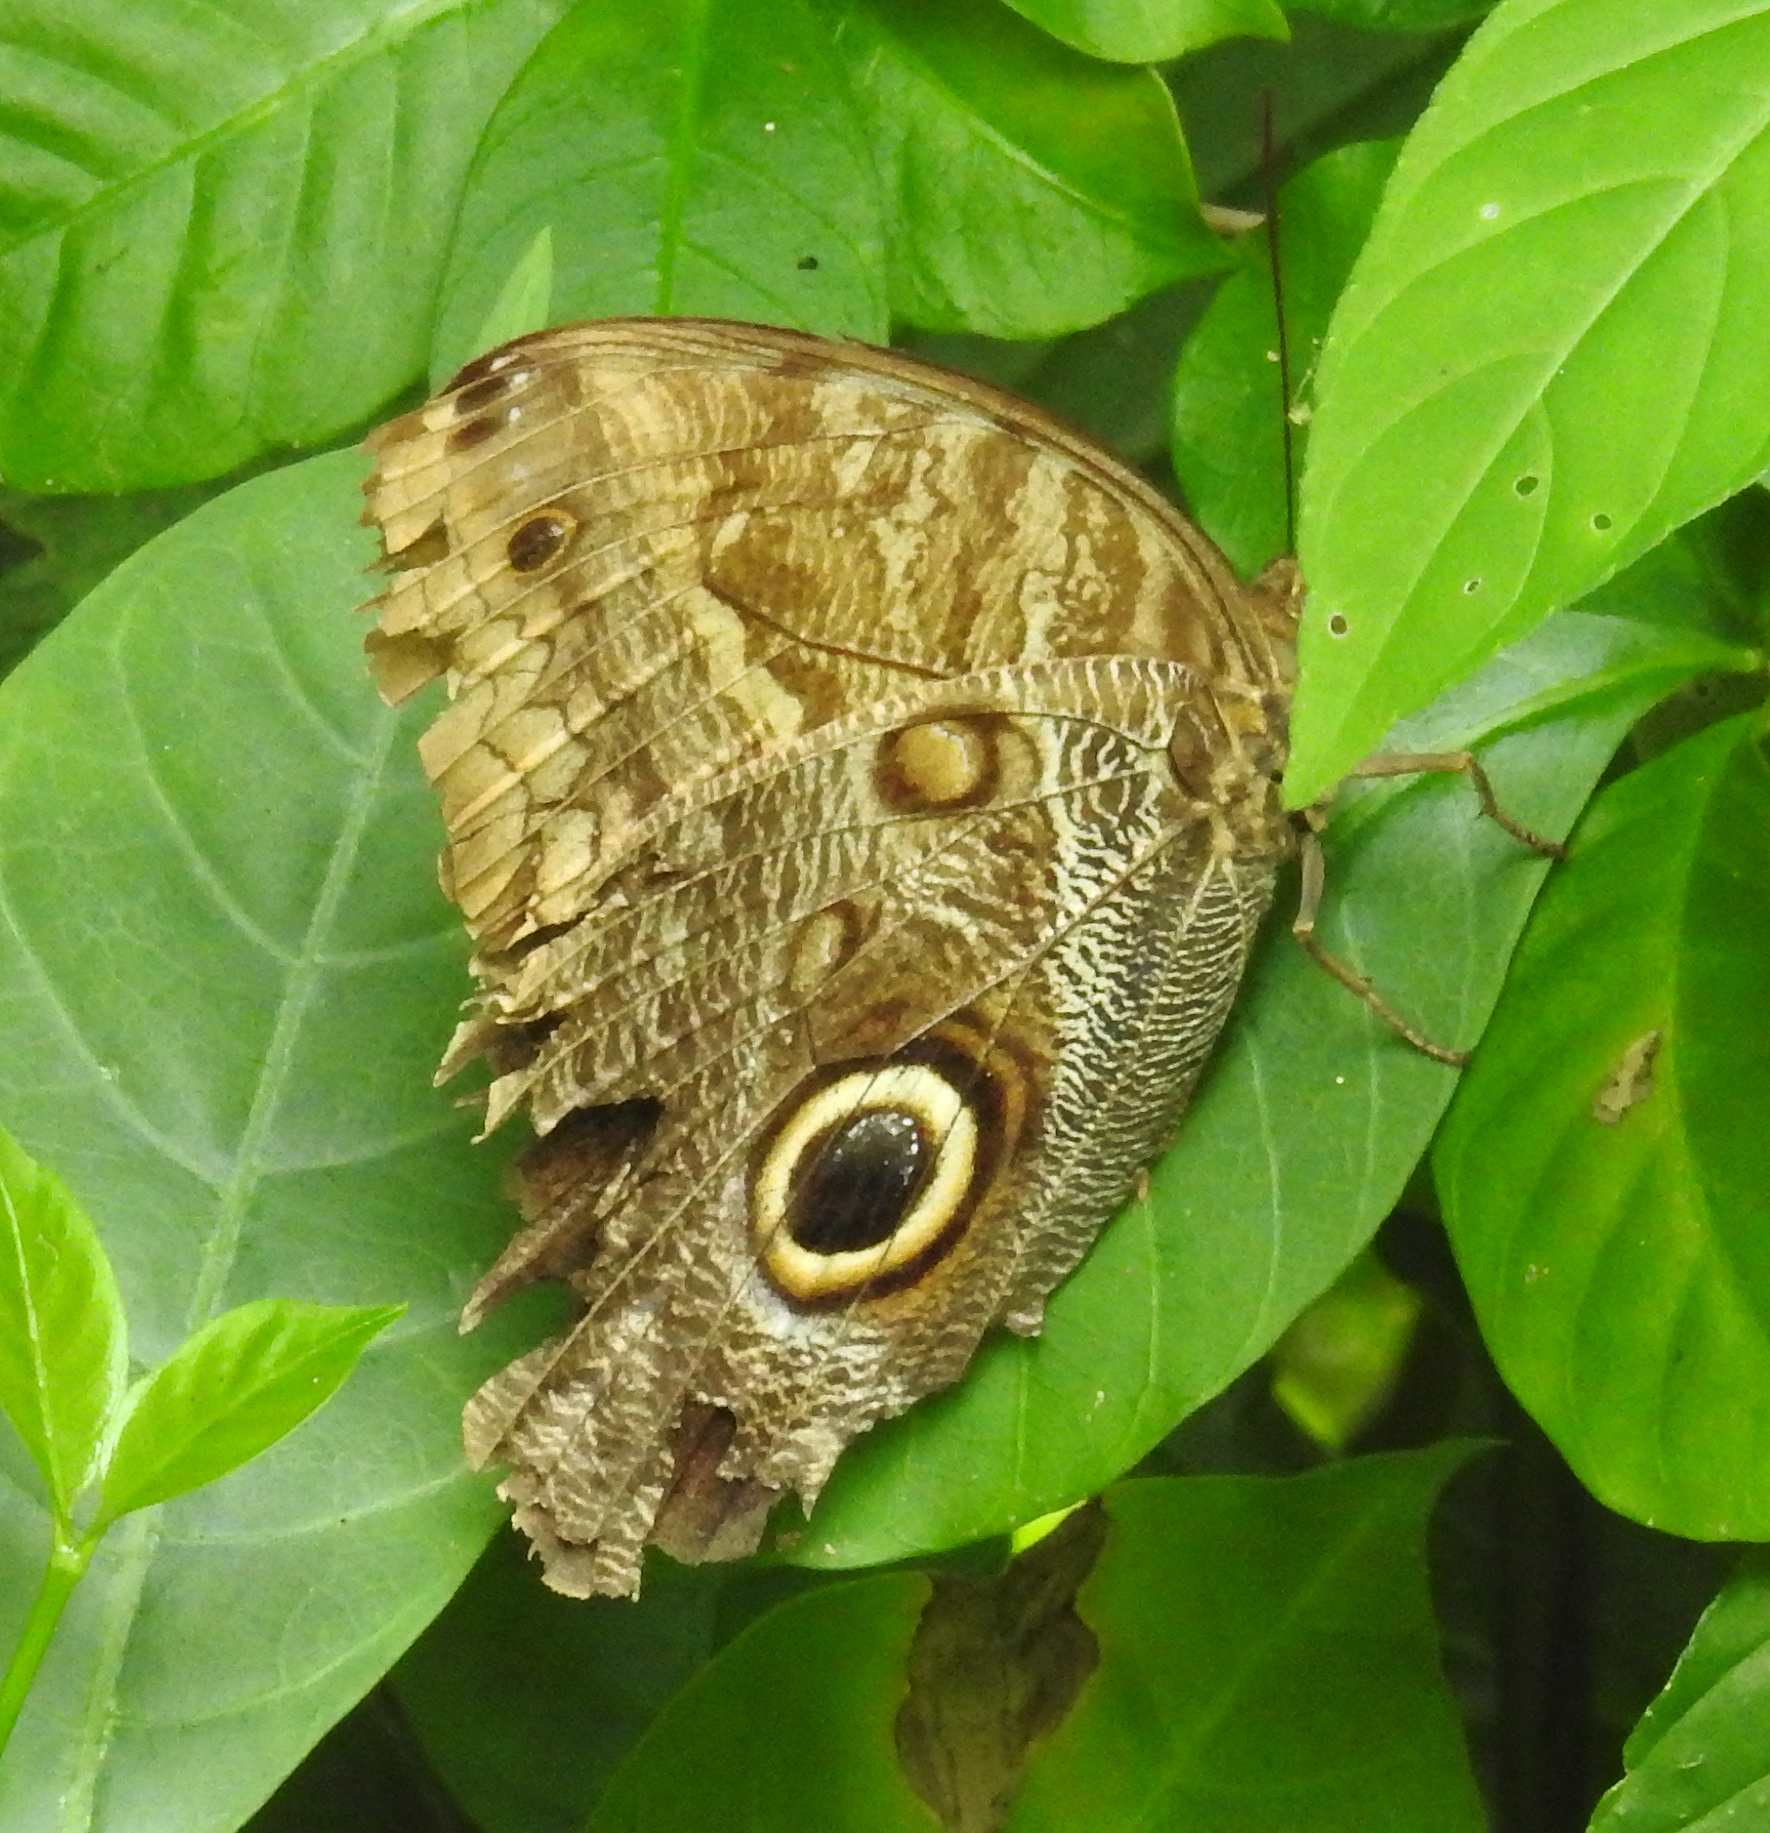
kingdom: Animalia
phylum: Arthropoda
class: Insecta
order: Lepidoptera
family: Nymphalidae
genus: Caligo
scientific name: Caligo telamonius
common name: Pale owl-butterfly
